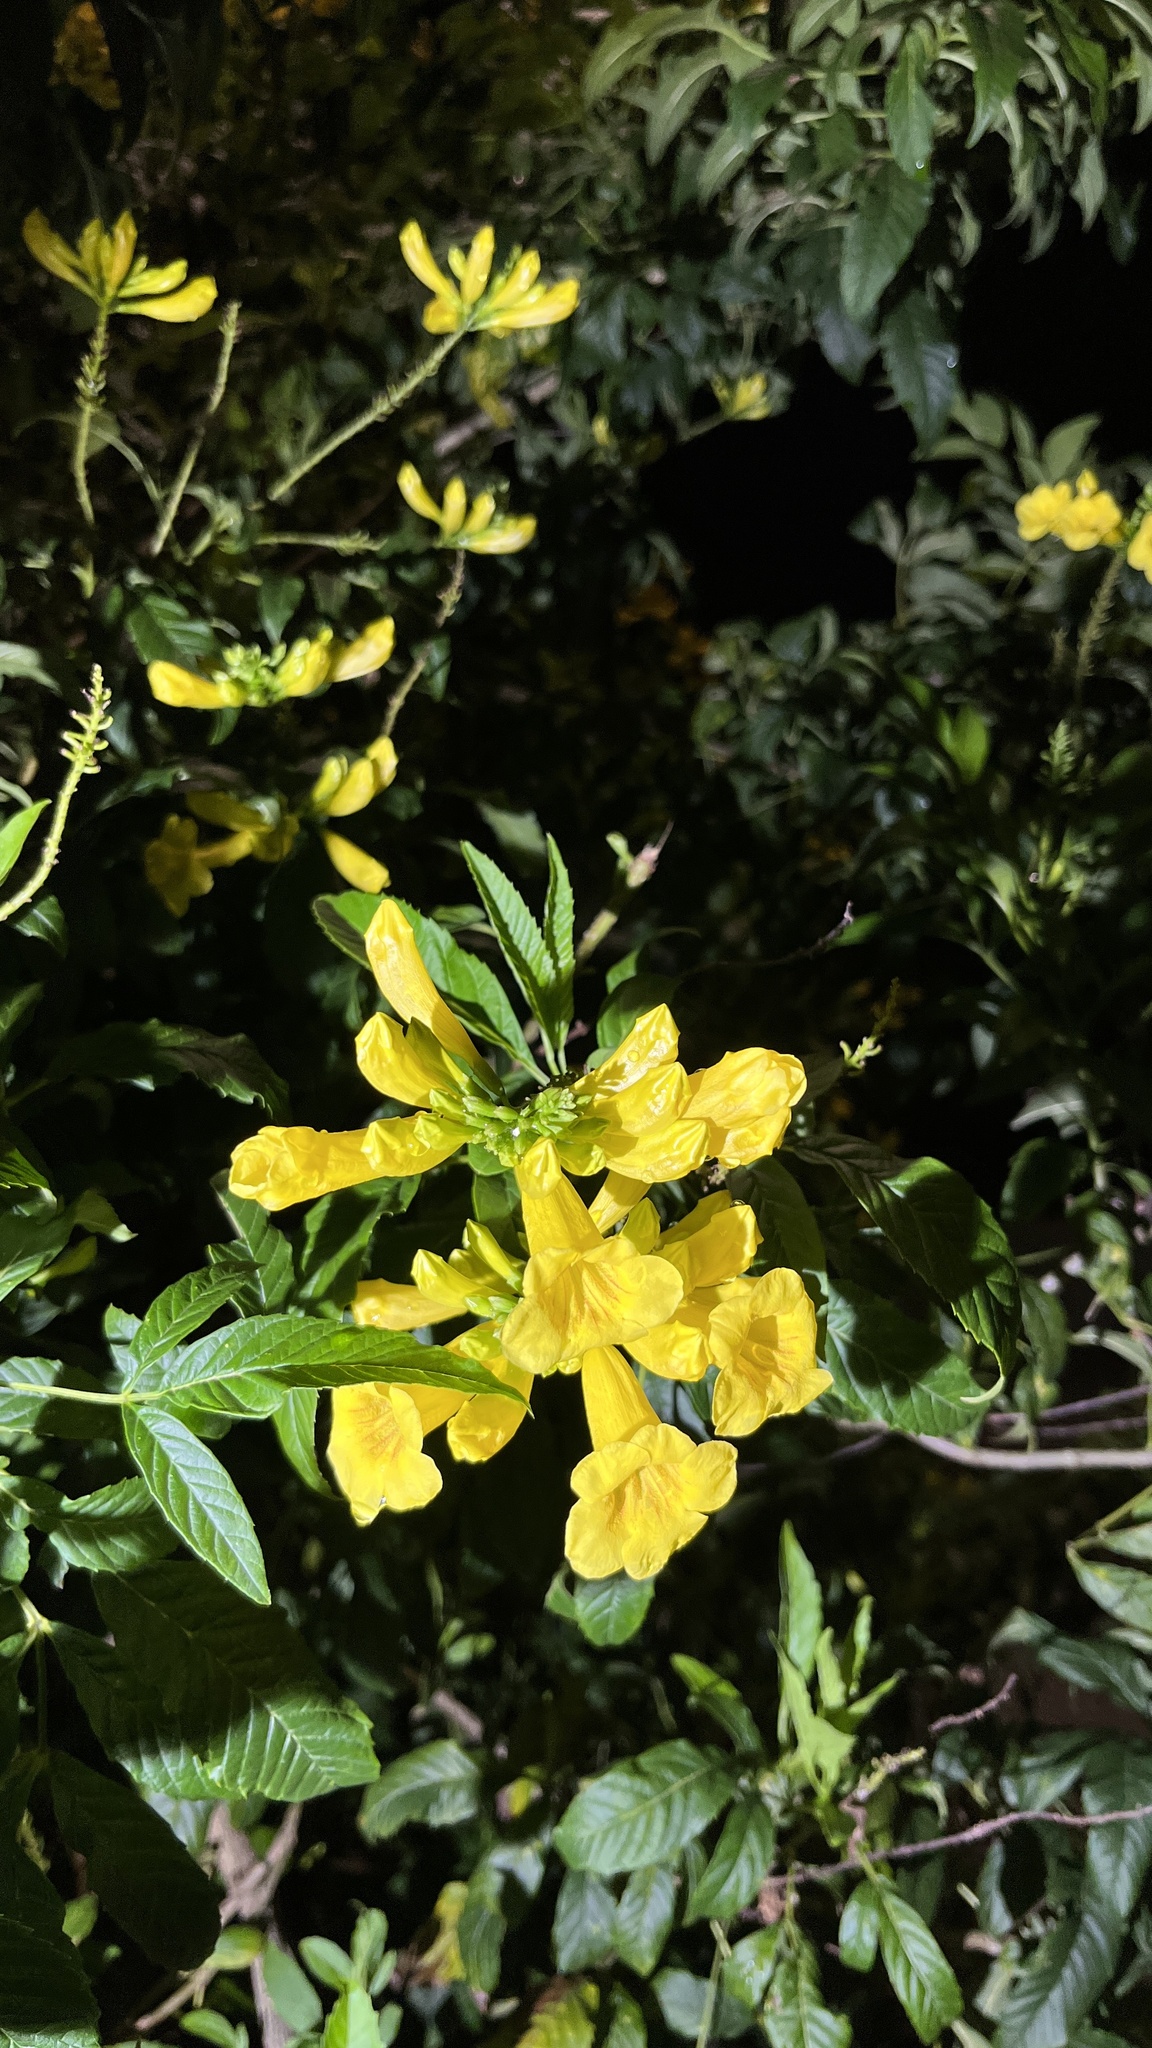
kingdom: Plantae
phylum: Tracheophyta
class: Magnoliopsida
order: Lamiales
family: Bignoniaceae
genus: Tecoma
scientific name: Tecoma stans
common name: Yellow trumpetbush
